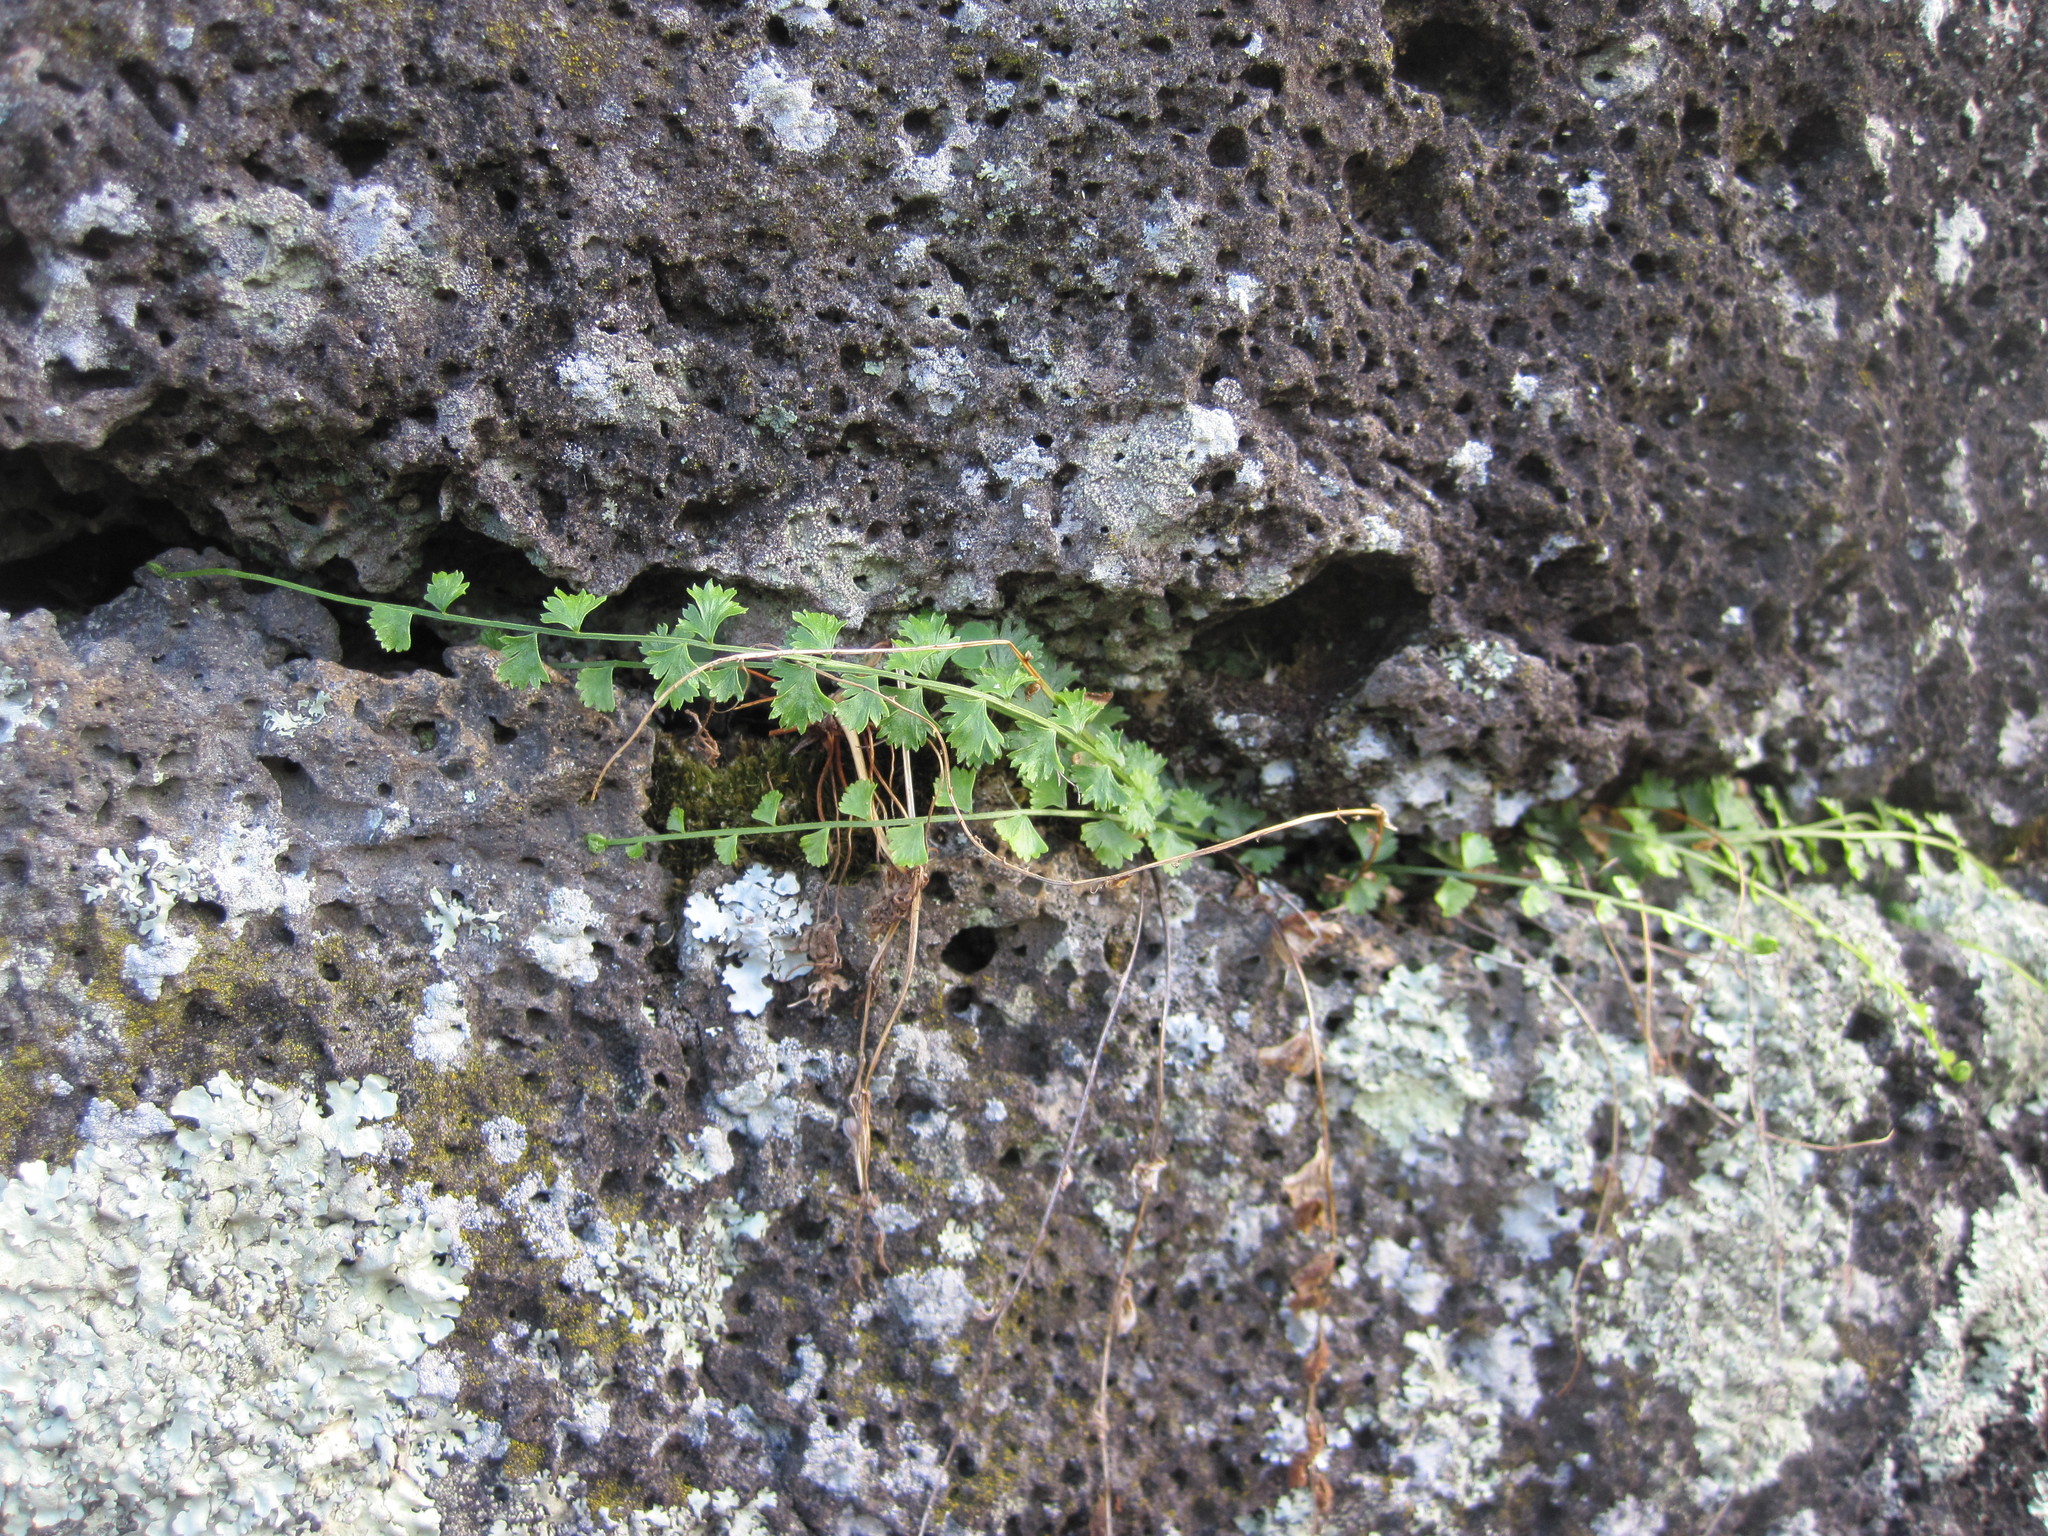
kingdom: Plantae
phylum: Tracheophyta
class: Polypodiopsida
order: Polypodiales
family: Aspleniaceae
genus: Asplenium
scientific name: Asplenium flabellifolium
